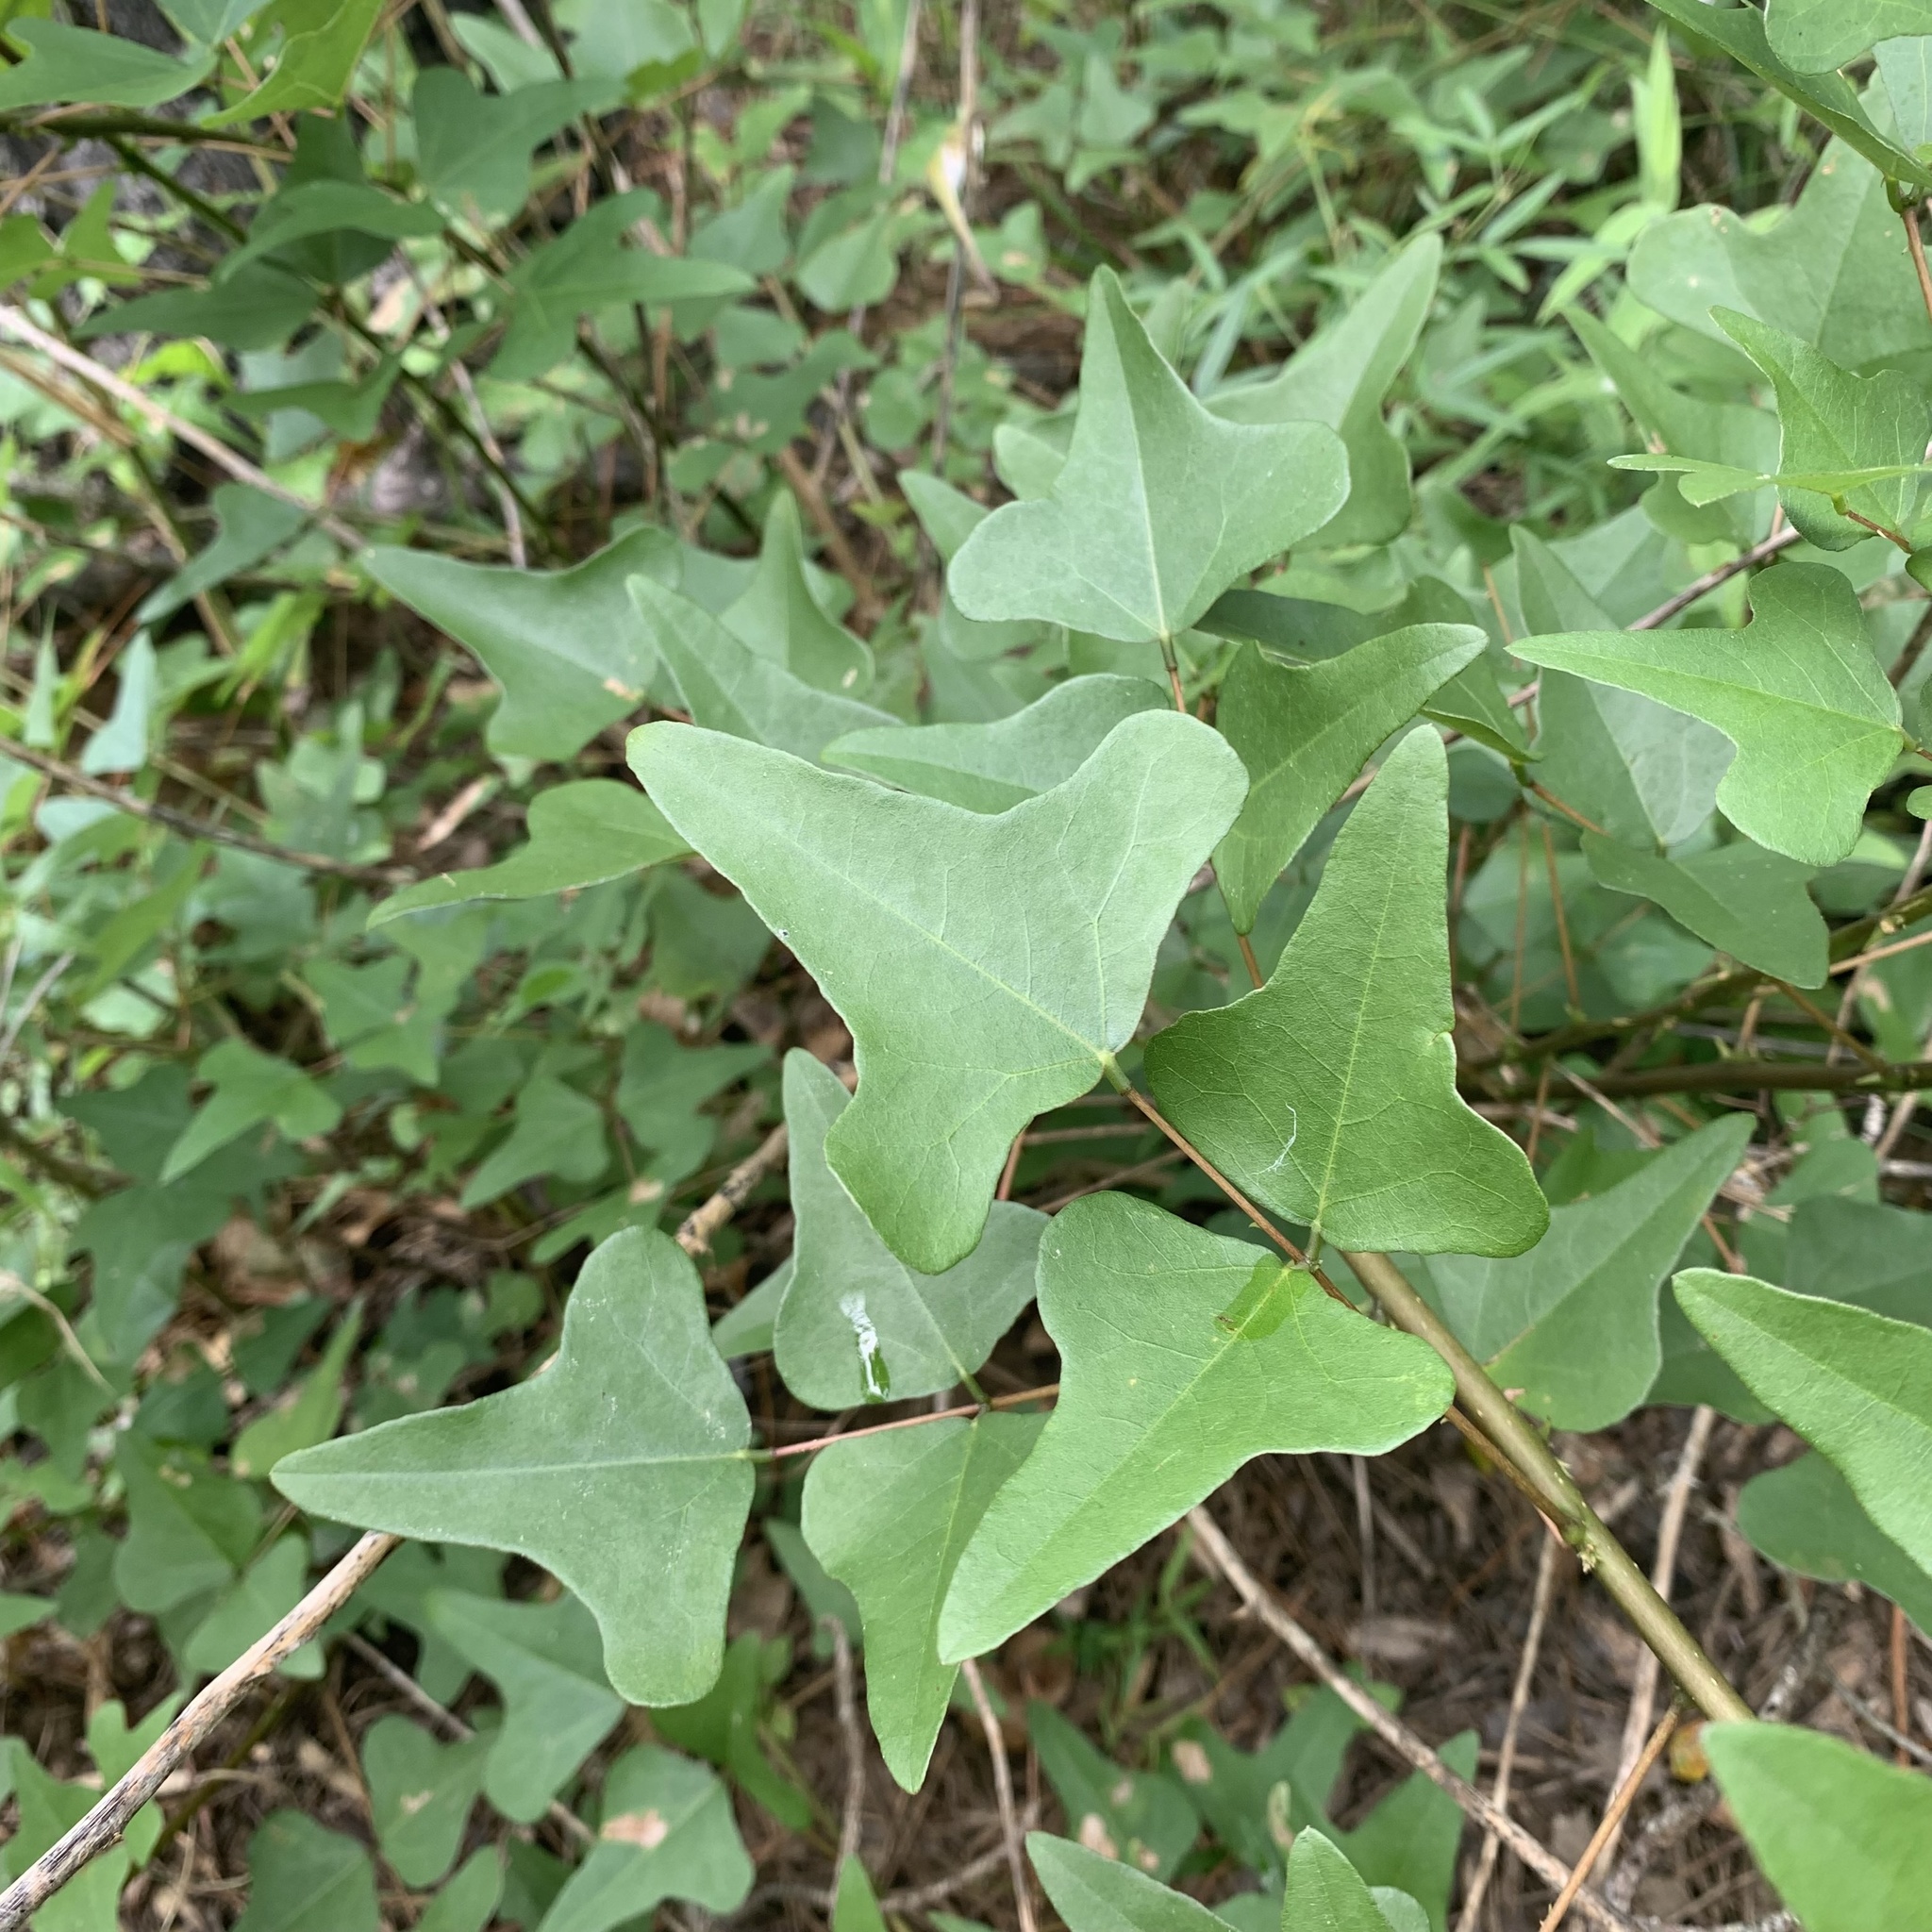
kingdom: Plantae
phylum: Tracheophyta
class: Magnoliopsida
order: Fabales
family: Fabaceae
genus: Erythrina
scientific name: Erythrina herbacea
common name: Coral-bean
